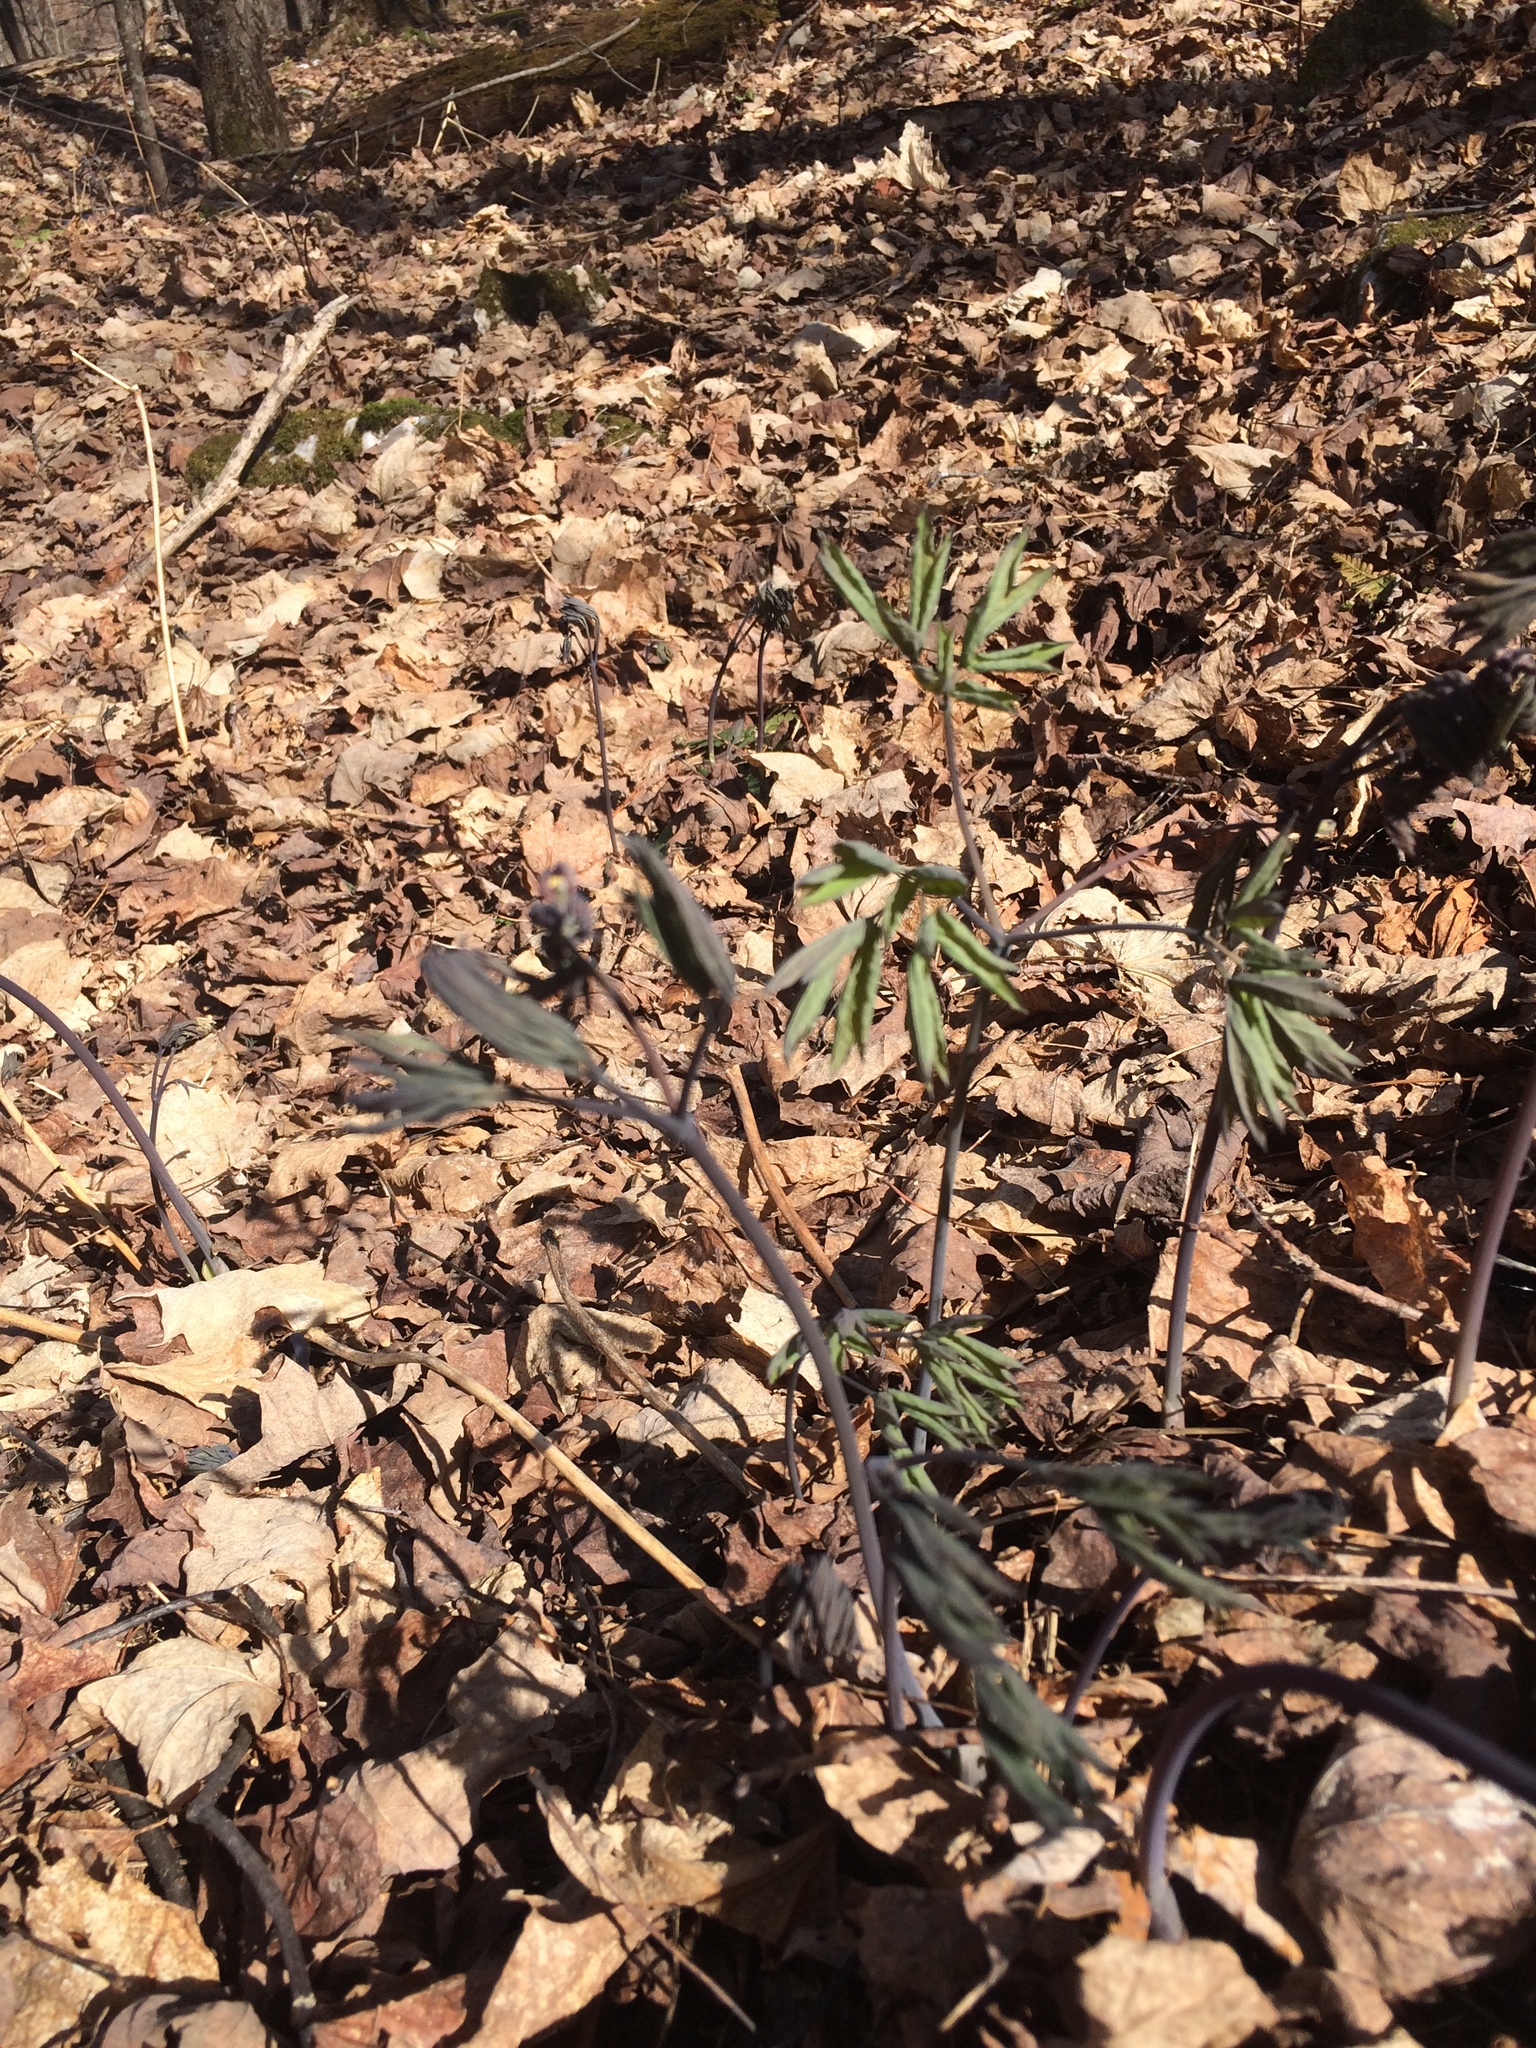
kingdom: Plantae
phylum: Tracheophyta
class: Magnoliopsida
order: Ranunculales
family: Berberidaceae
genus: Caulophyllum
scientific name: Caulophyllum giganteum
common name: Blue cohosh
